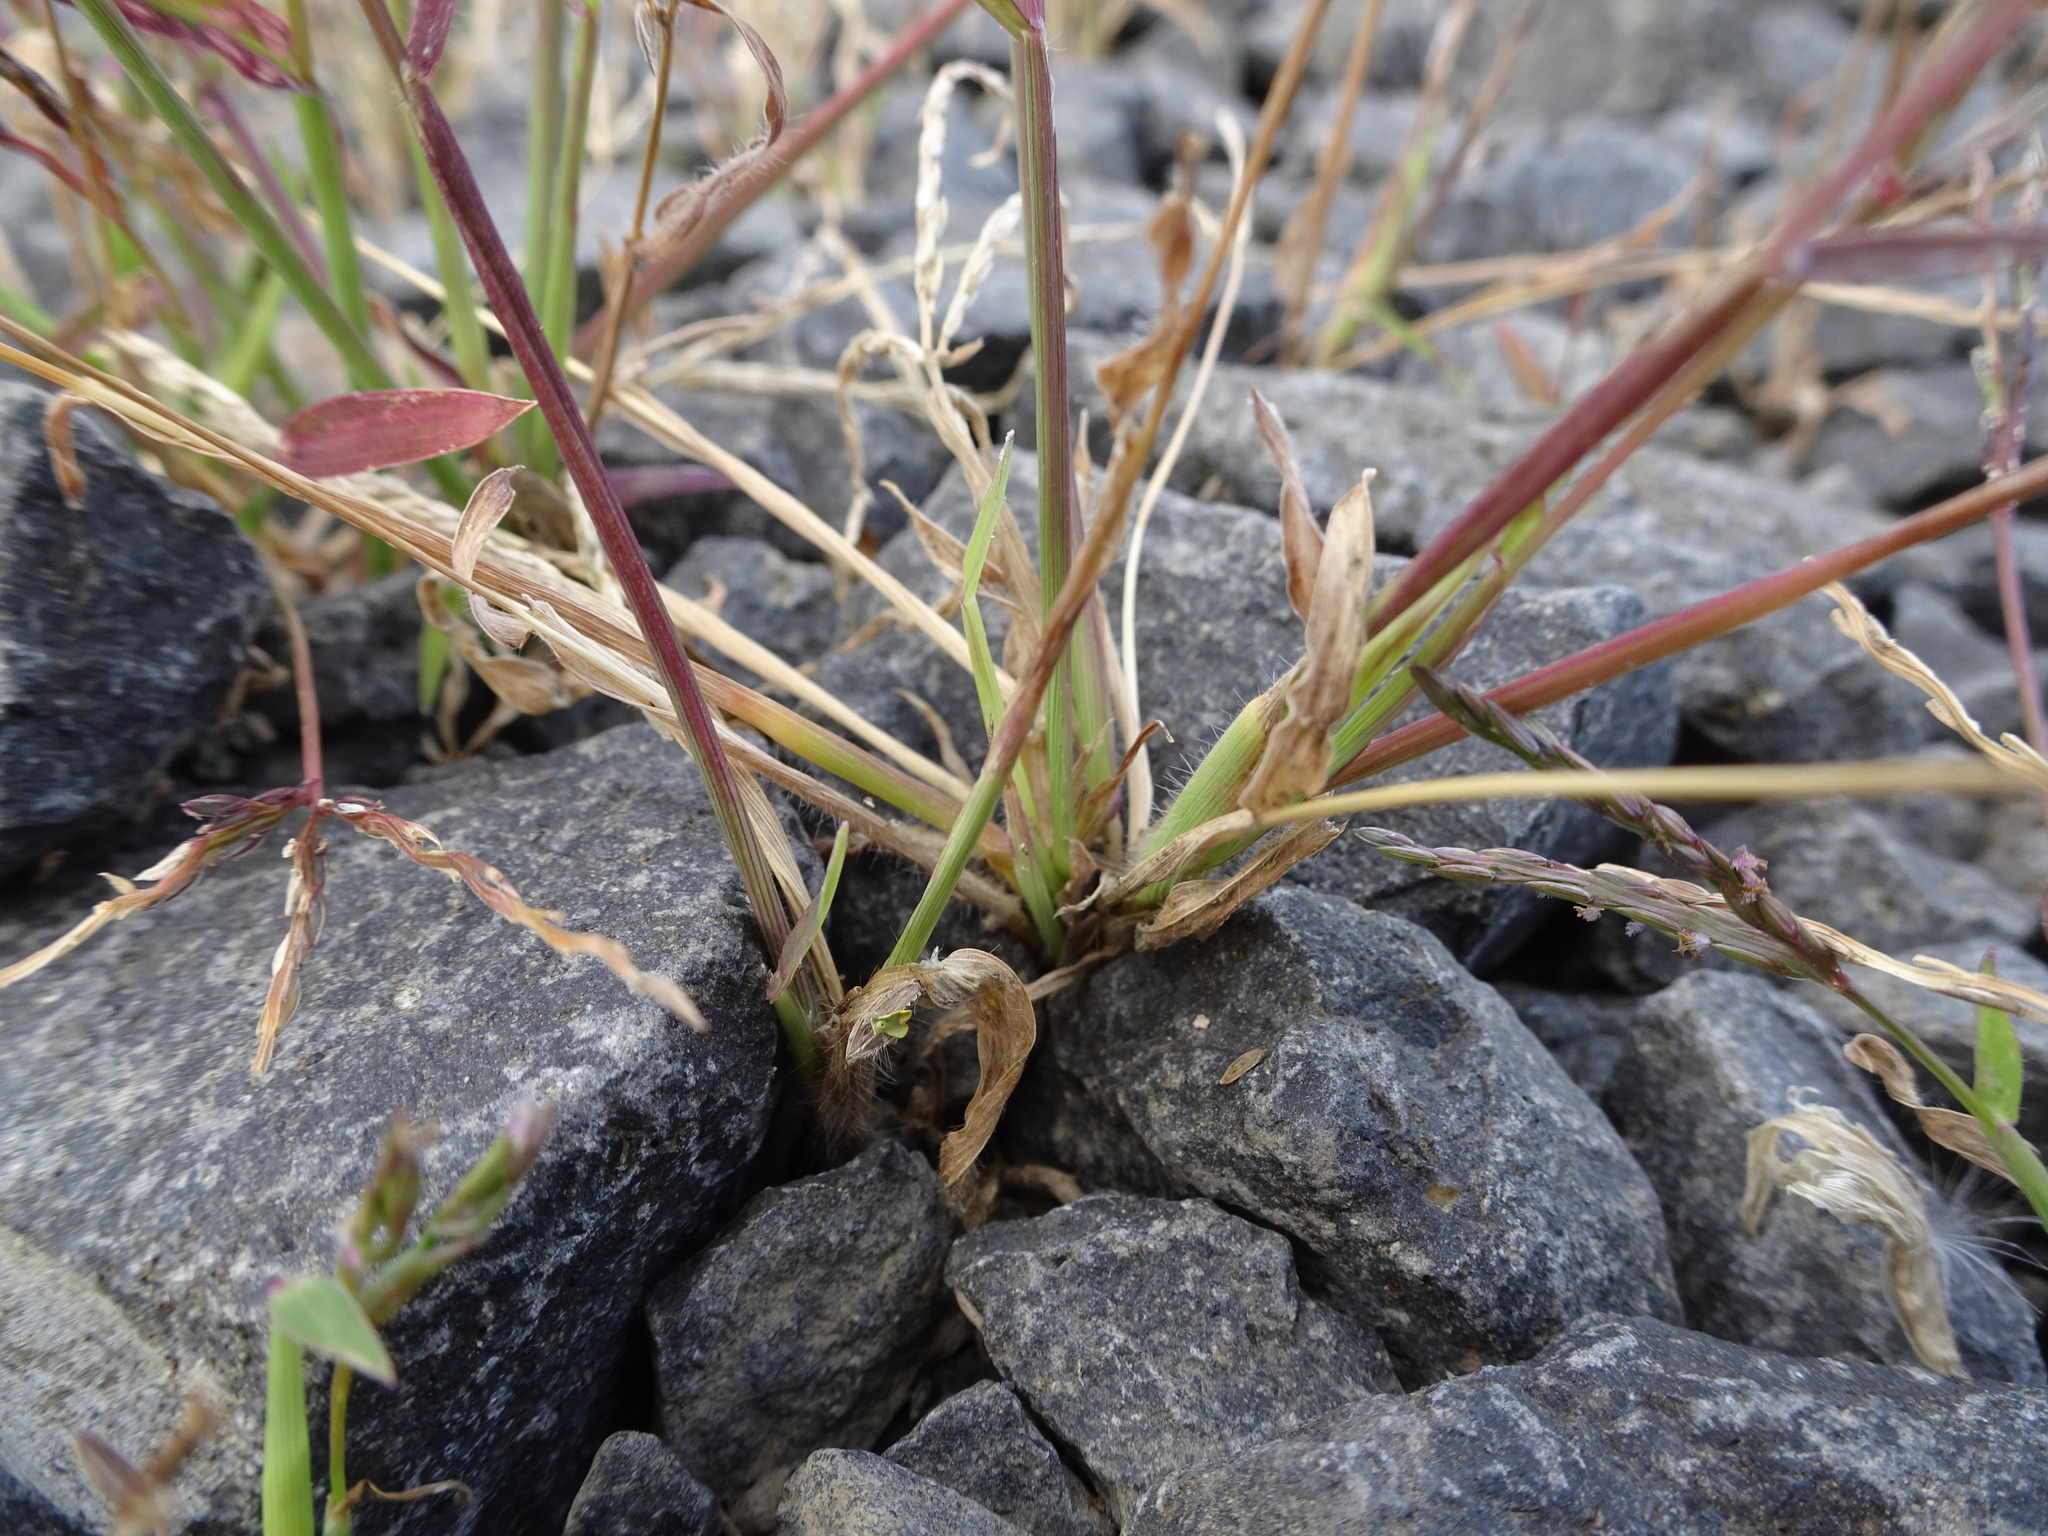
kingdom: Plantae
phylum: Tracheophyta
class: Liliopsida
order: Poales
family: Poaceae
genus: Digitaria
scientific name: Digitaria sanguinalis
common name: Hairy crabgrass
